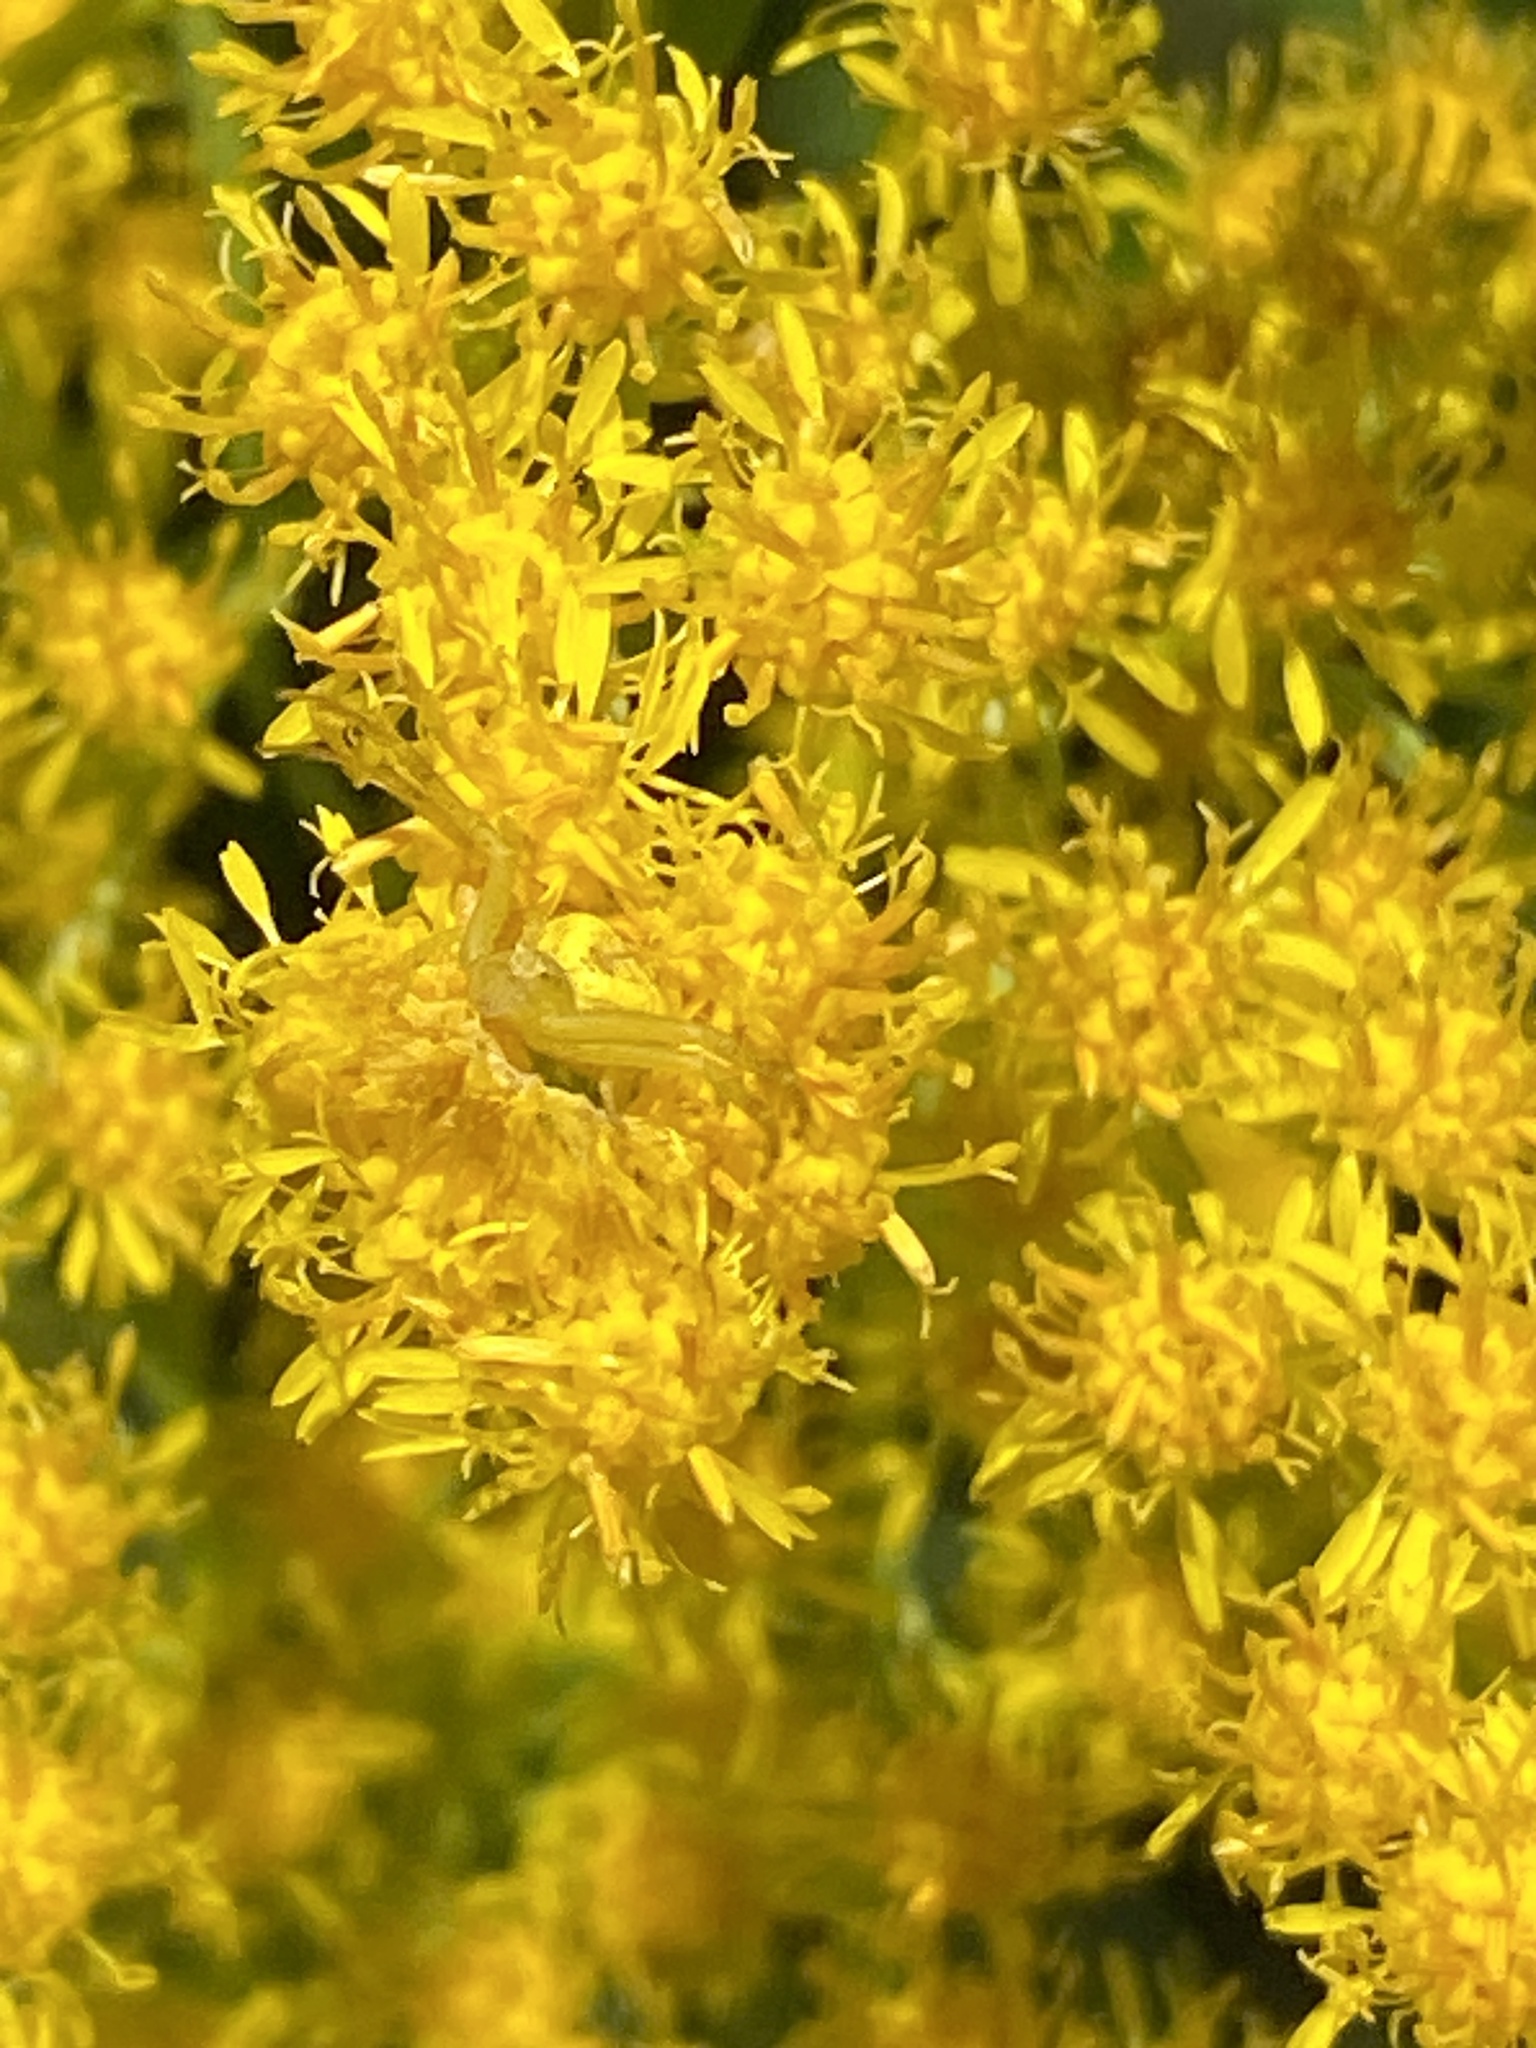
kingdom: Animalia
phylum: Arthropoda
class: Arachnida
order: Araneae
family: Thomisidae
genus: Misumenops
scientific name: Misumenops
